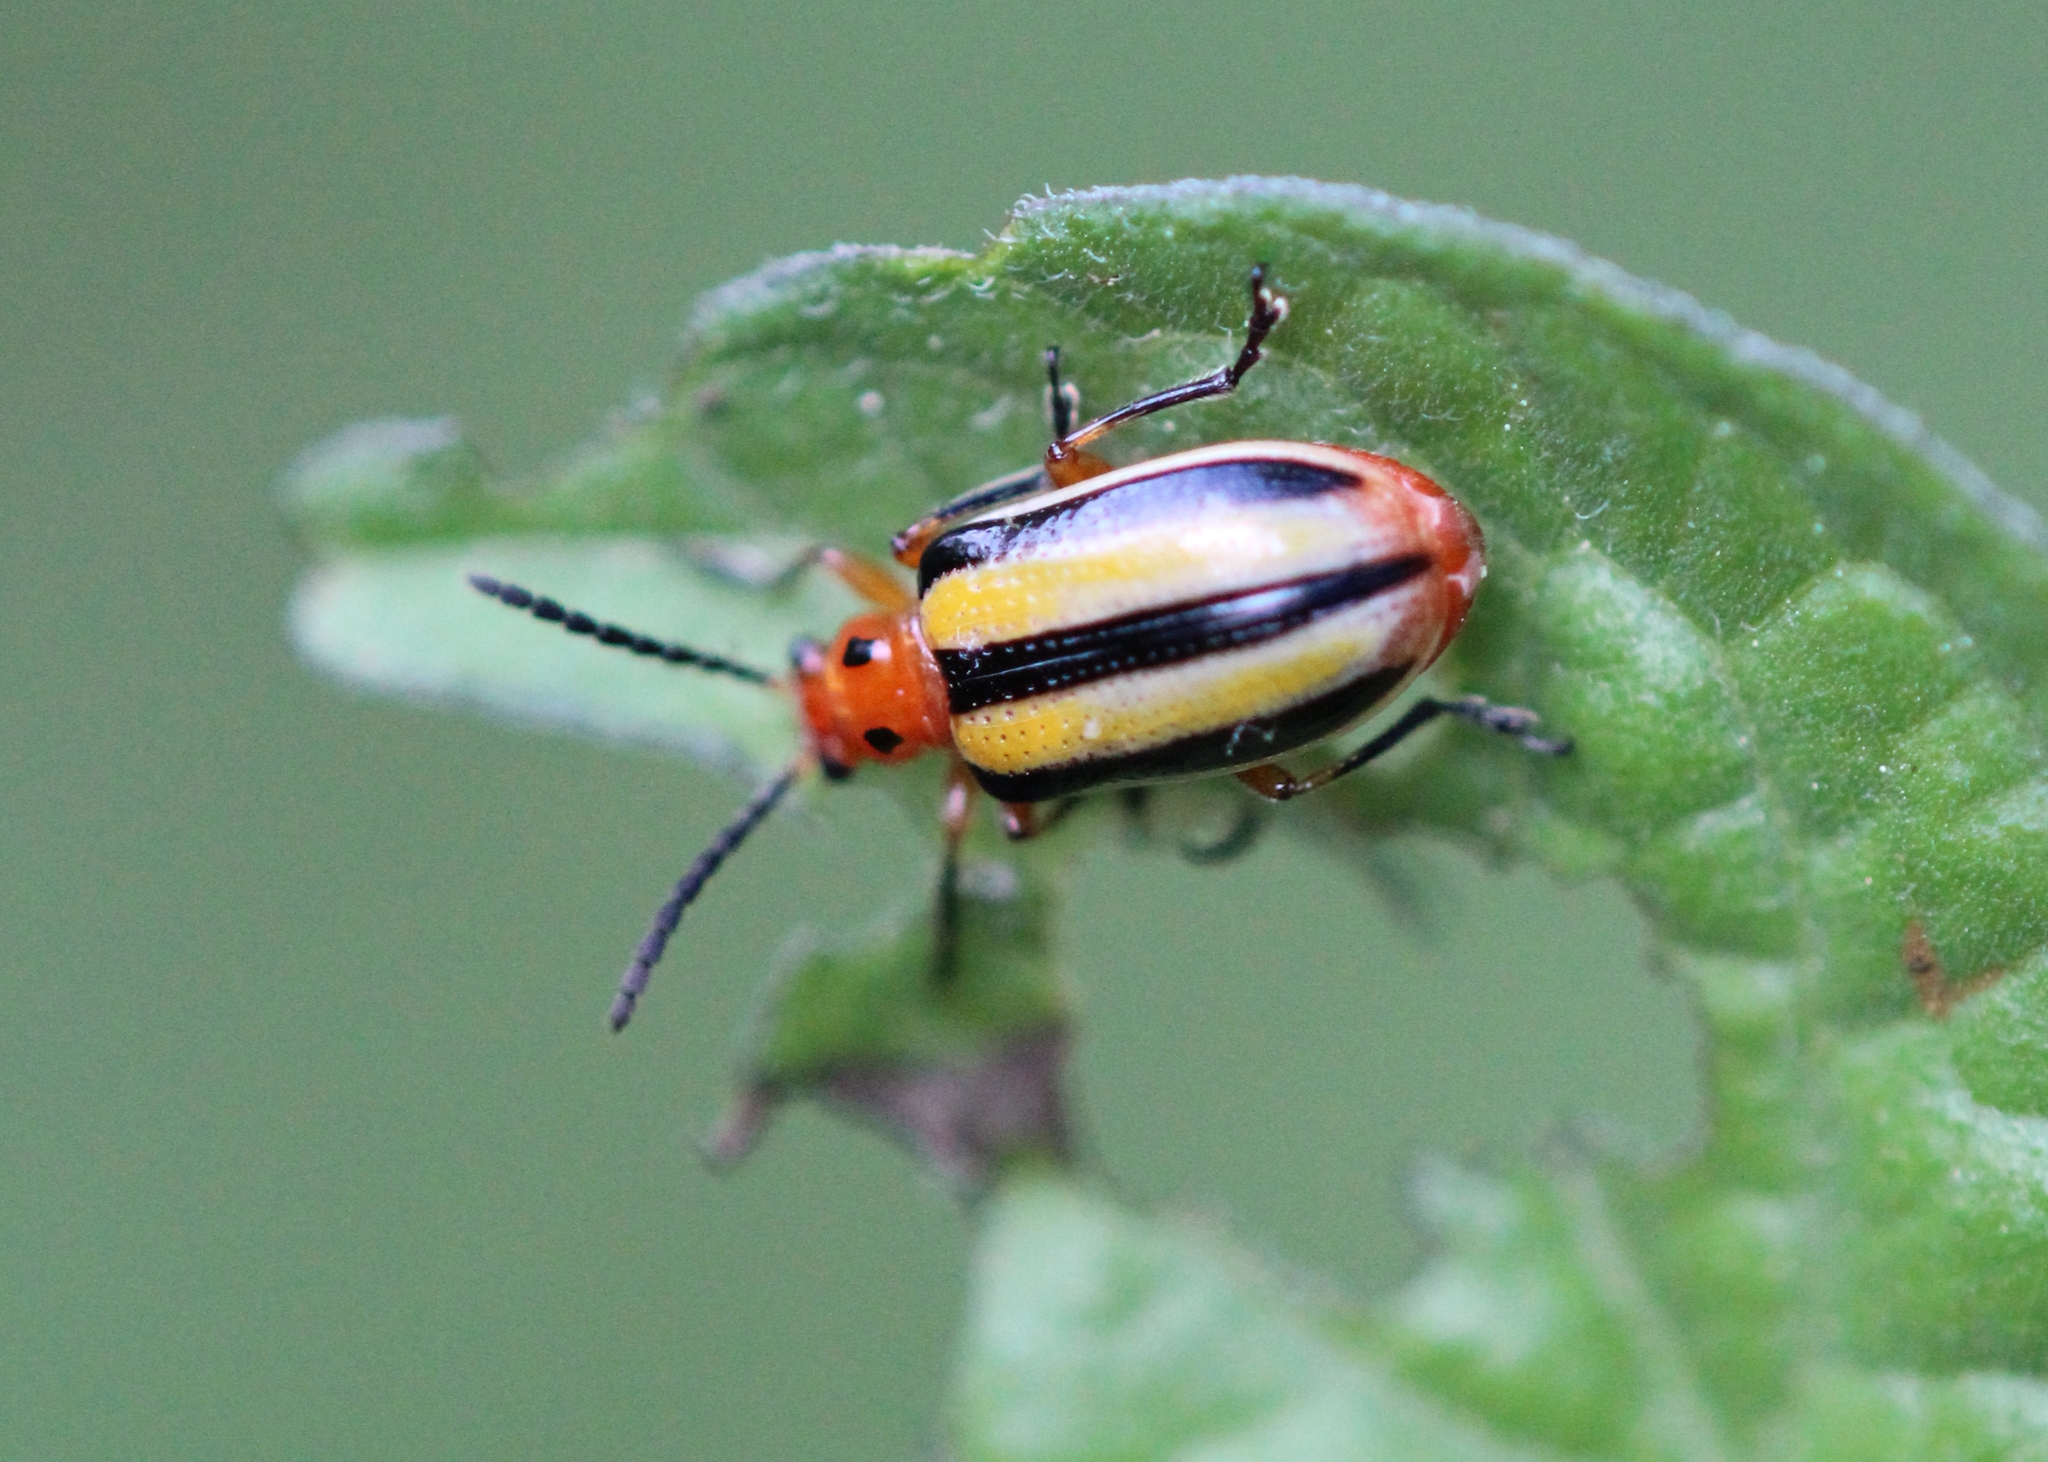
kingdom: Animalia
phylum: Arthropoda
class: Insecta
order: Coleoptera
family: Chrysomelidae
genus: Lema
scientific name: Lema daturaphila
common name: Leaf beetle
